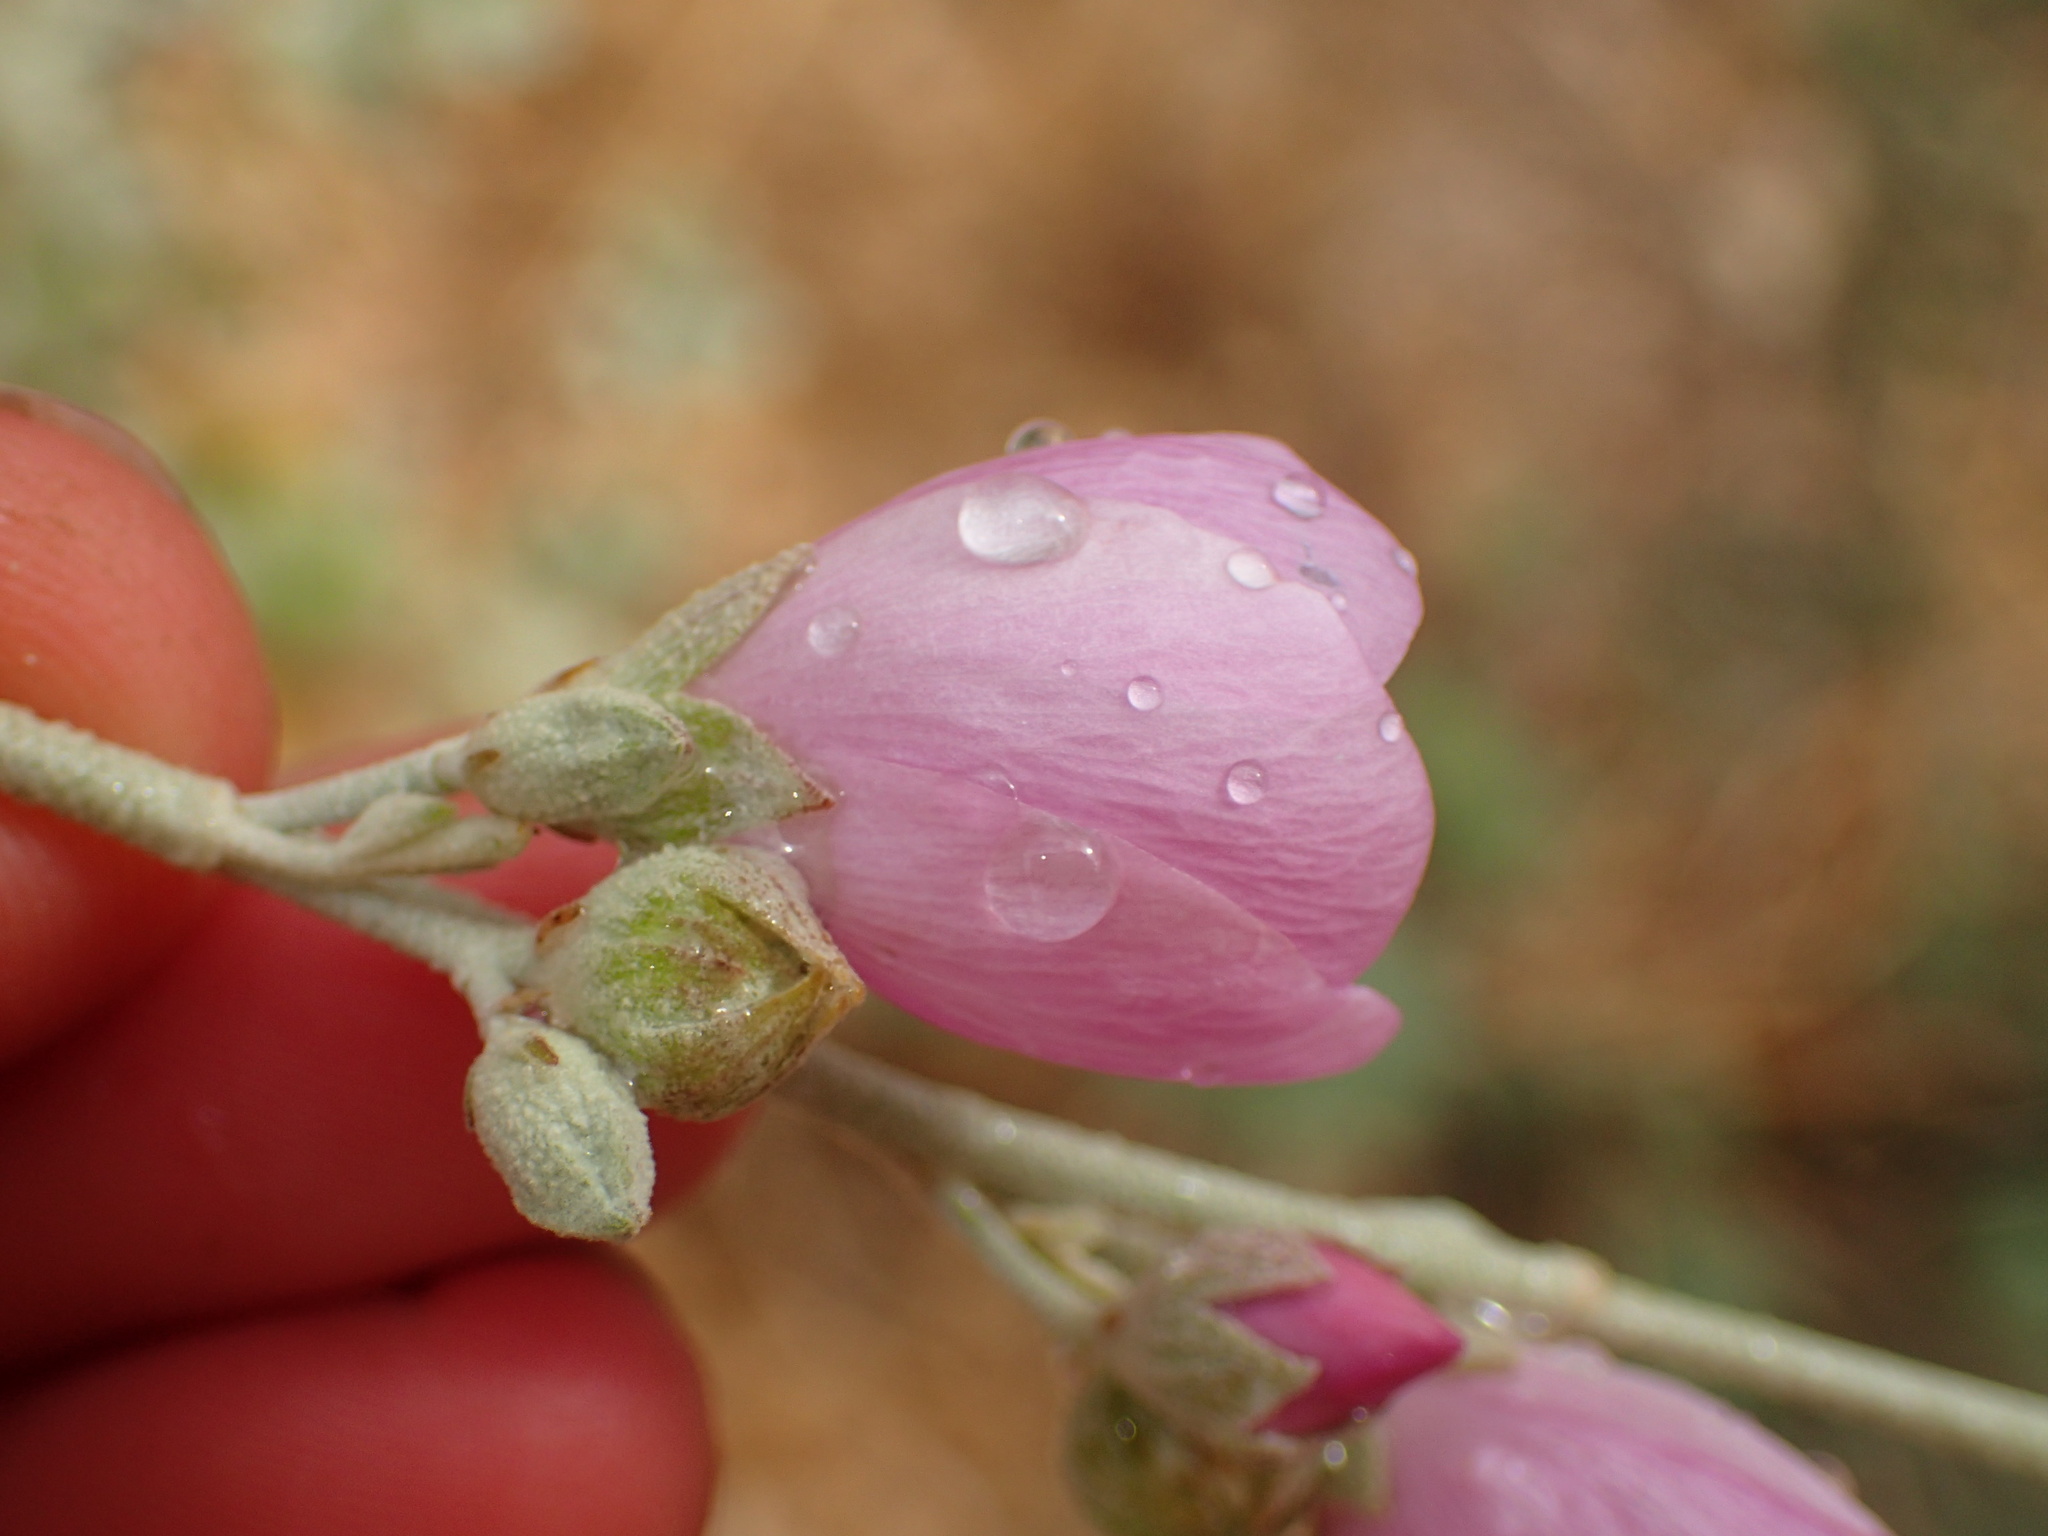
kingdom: Plantae
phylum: Tracheophyta
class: Magnoliopsida
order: Malvales
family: Malvaceae
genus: Malacothamnus
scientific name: Malacothamnus fasciculatus
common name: Sant cruz island bush-mallow
